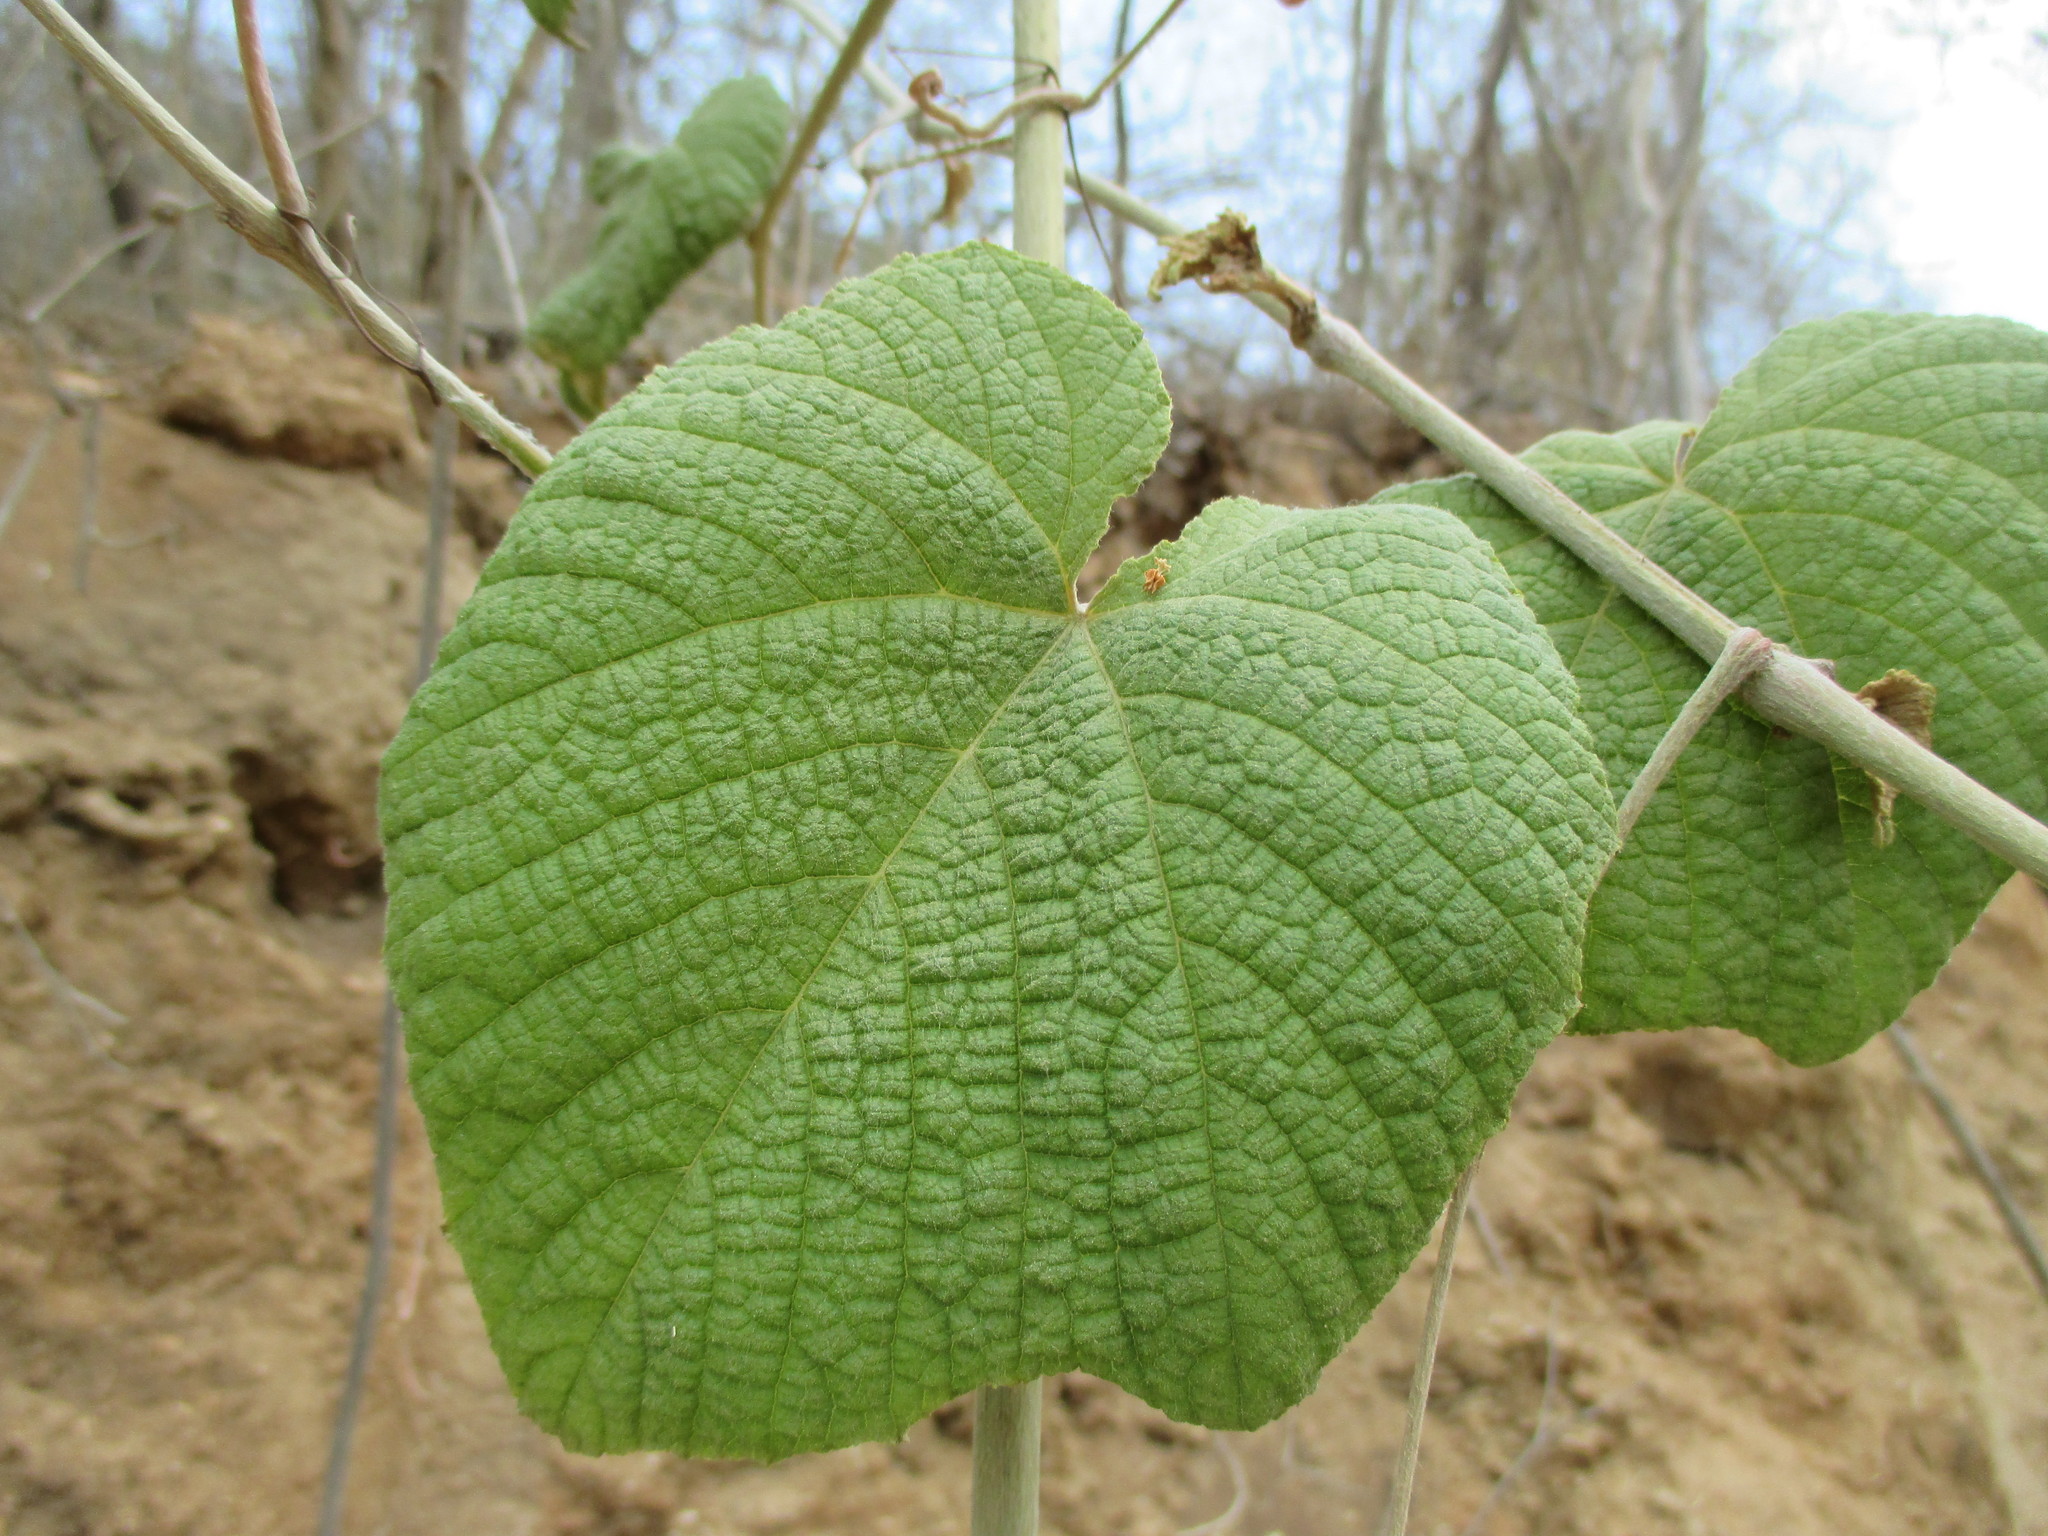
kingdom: Plantae
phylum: Tracheophyta
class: Magnoliopsida
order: Vitales
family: Vitaceae
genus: Ampelocissus
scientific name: Ampelocissus acapulcensis
